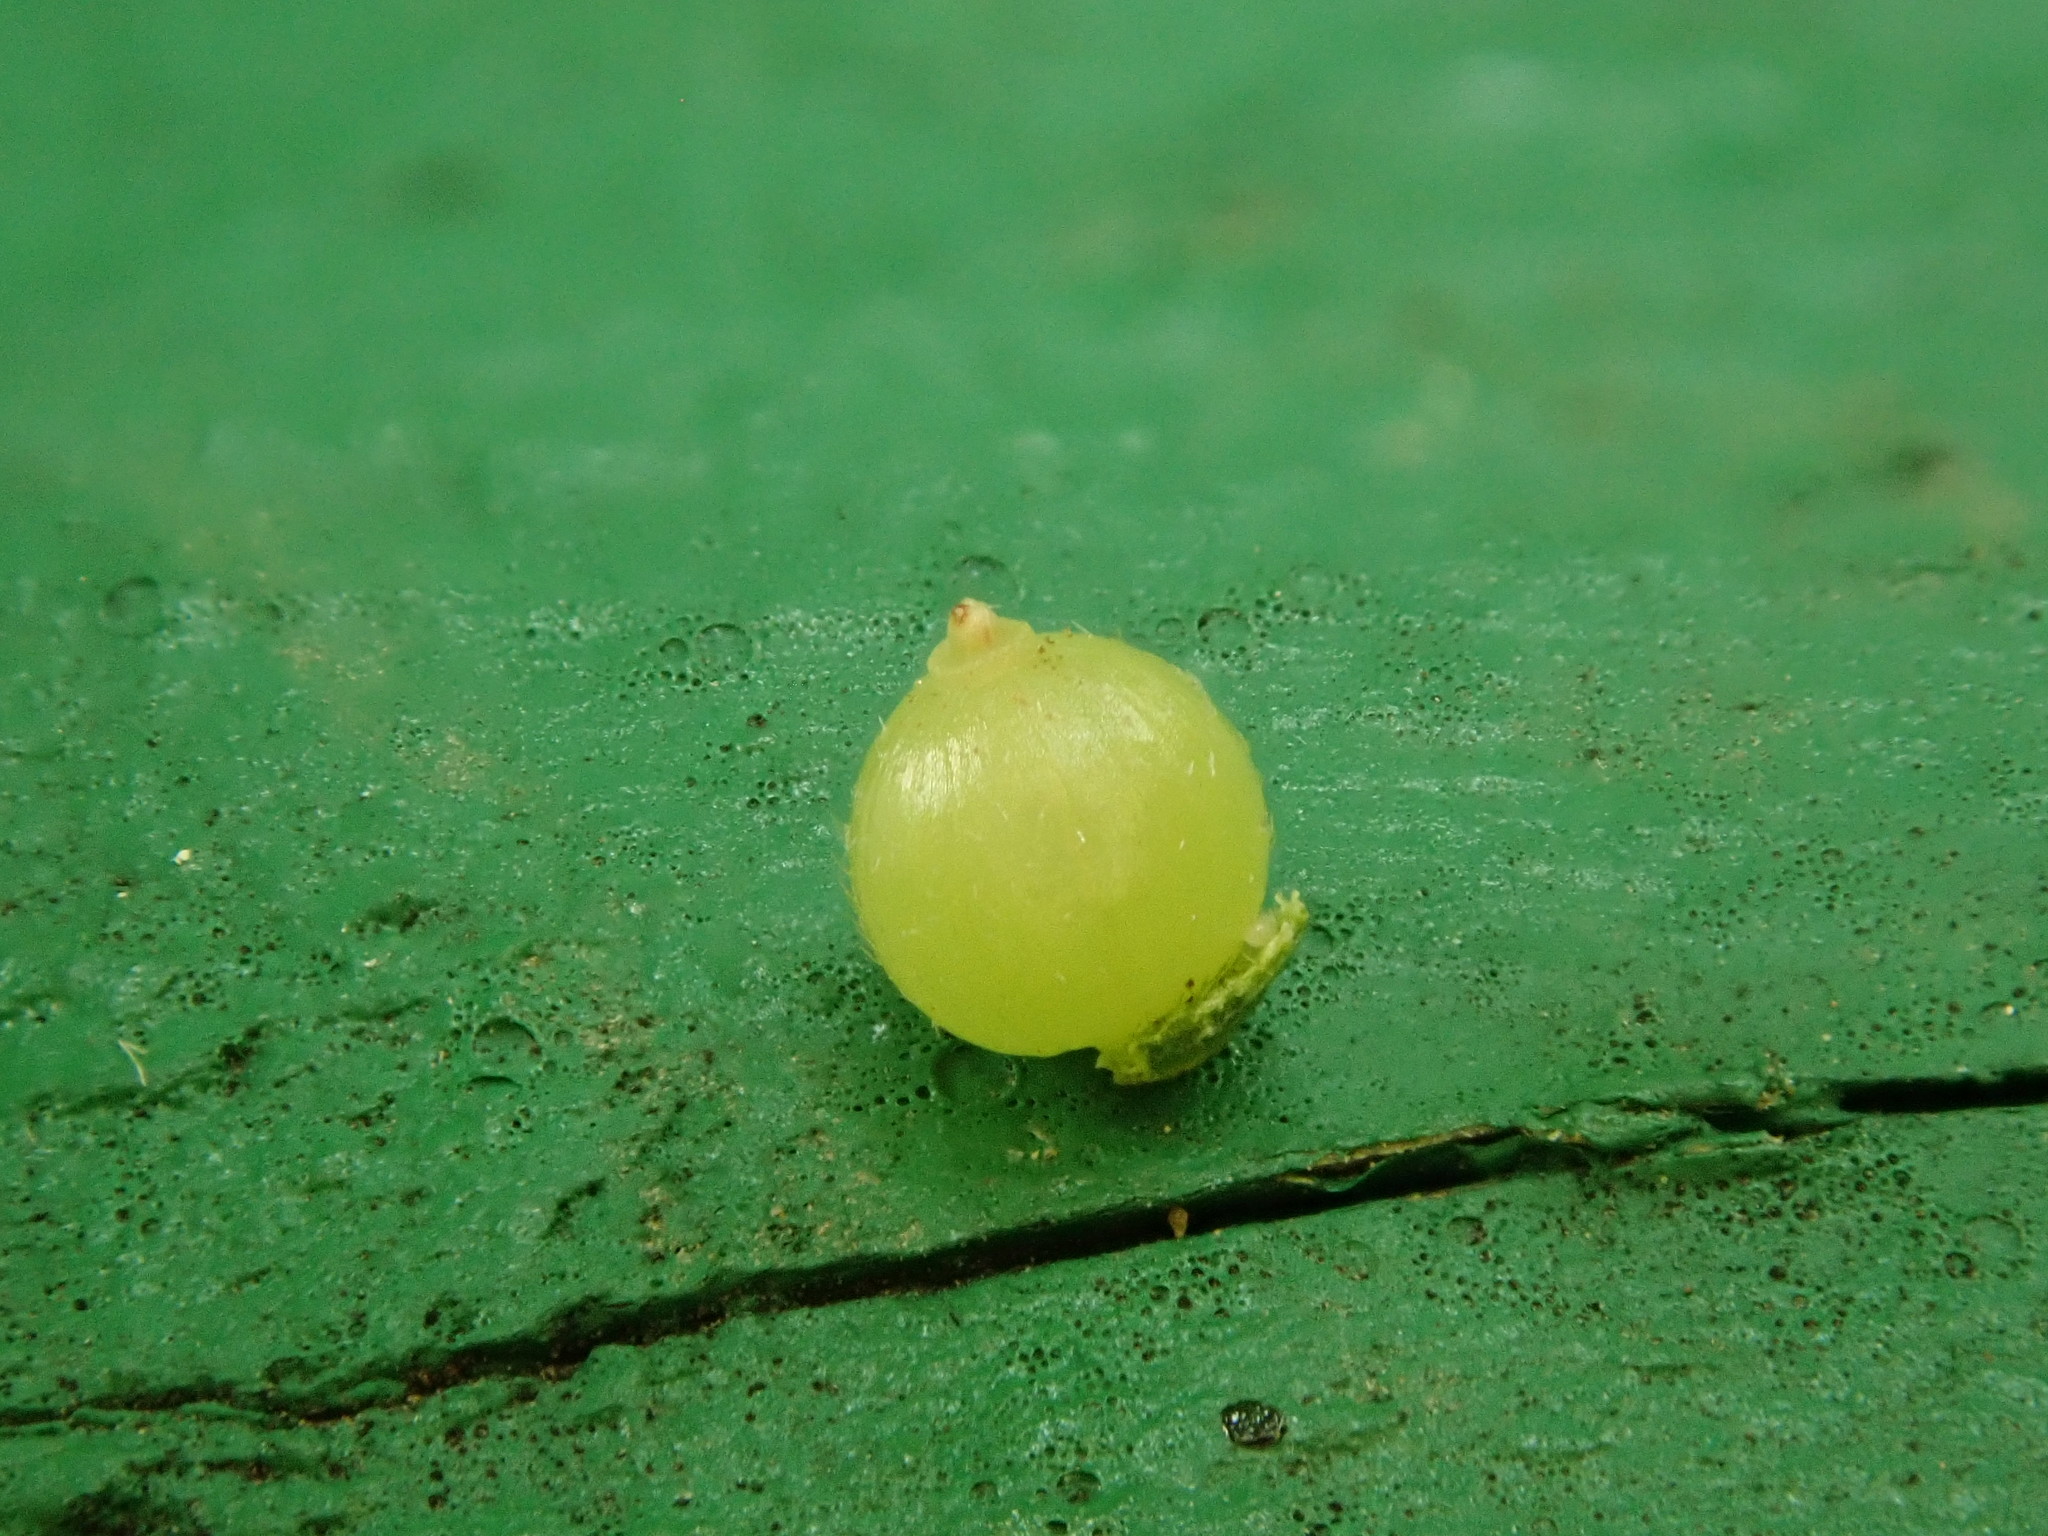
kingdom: Animalia
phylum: Arthropoda
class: Insecta
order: Diptera
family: Cecidomyiidae
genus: Caryomyia
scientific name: Caryomyia deflexipili
